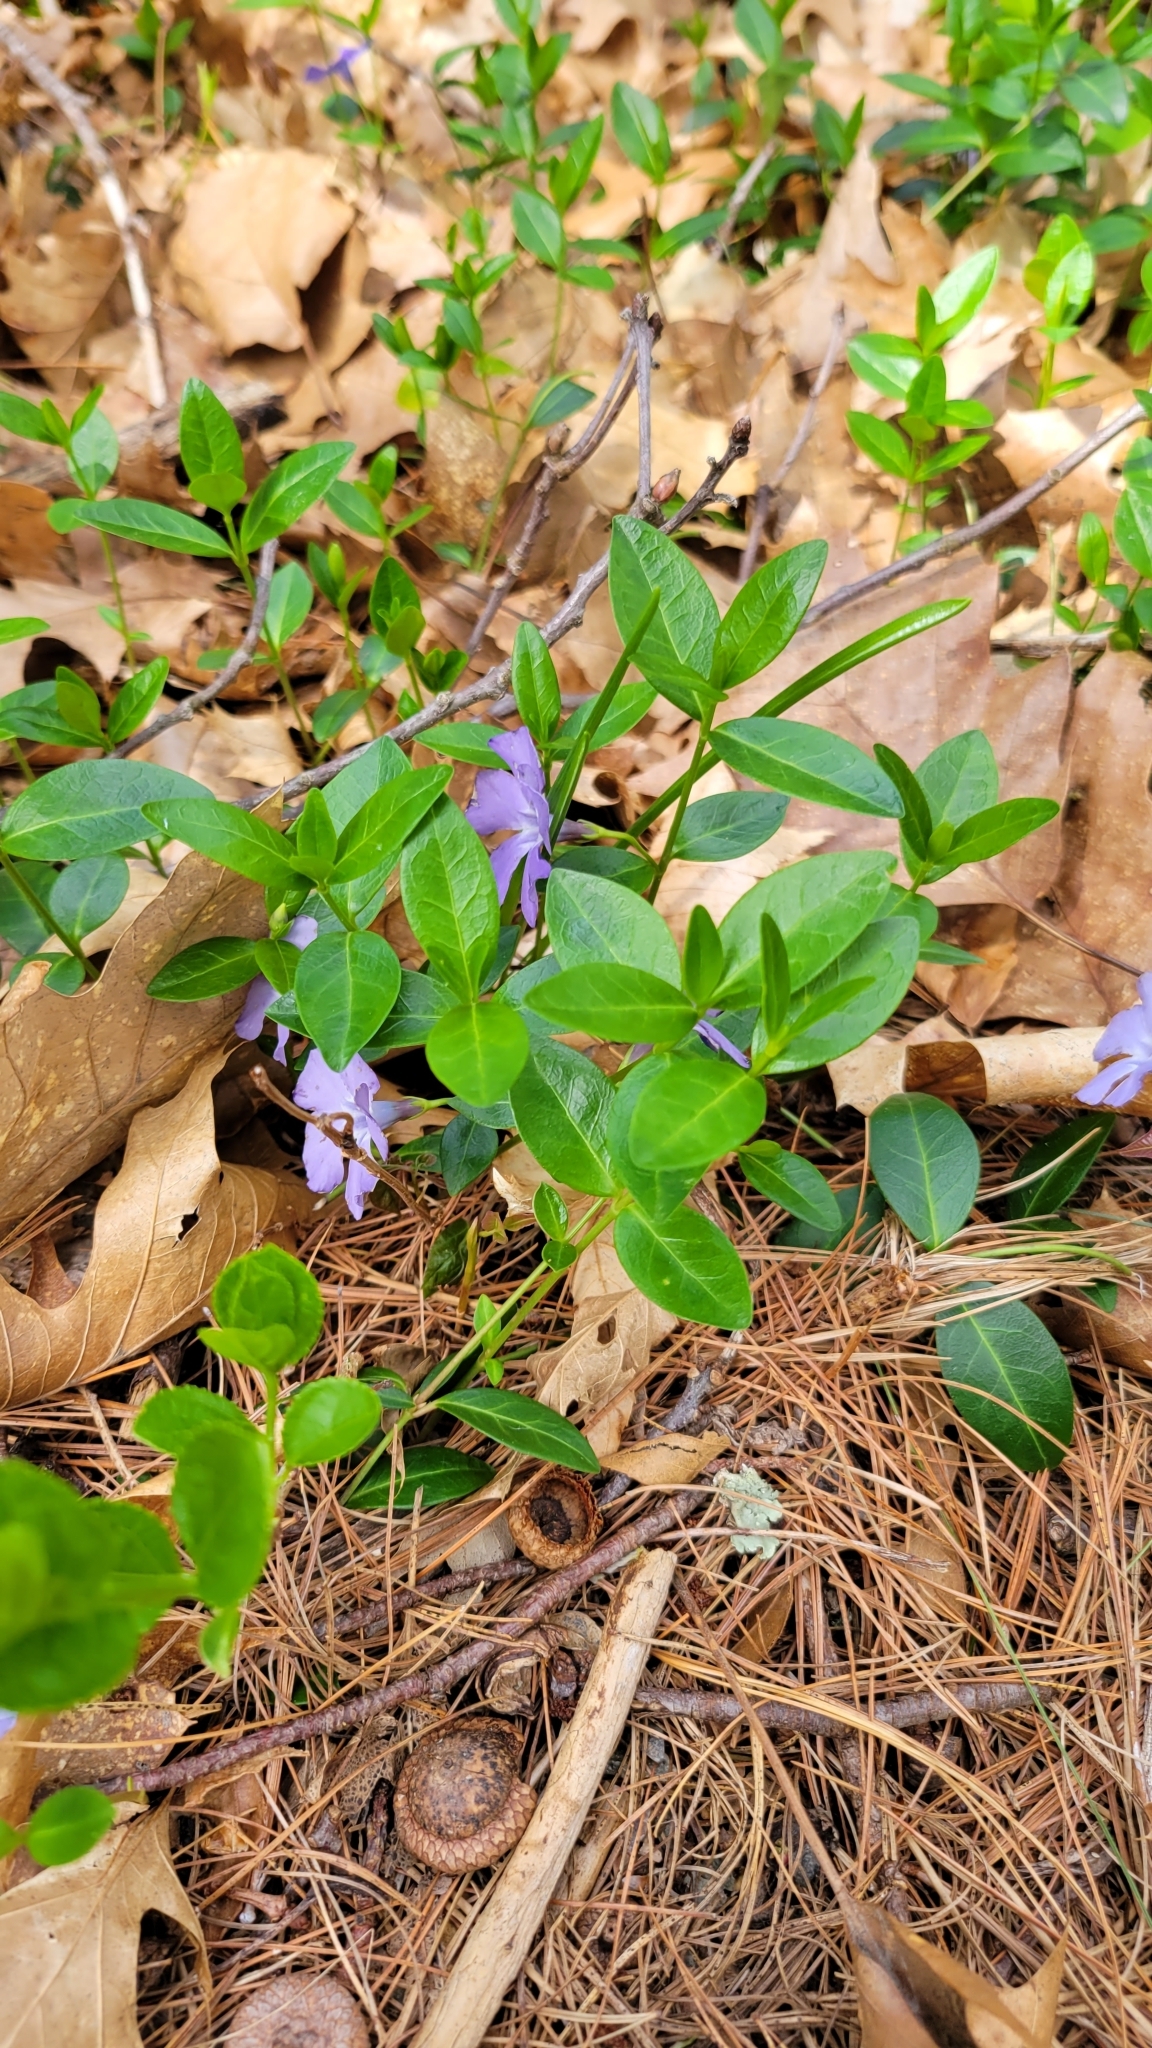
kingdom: Plantae
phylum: Tracheophyta
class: Magnoliopsida
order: Gentianales
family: Apocynaceae
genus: Vinca
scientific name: Vinca minor
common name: Lesser periwinkle
